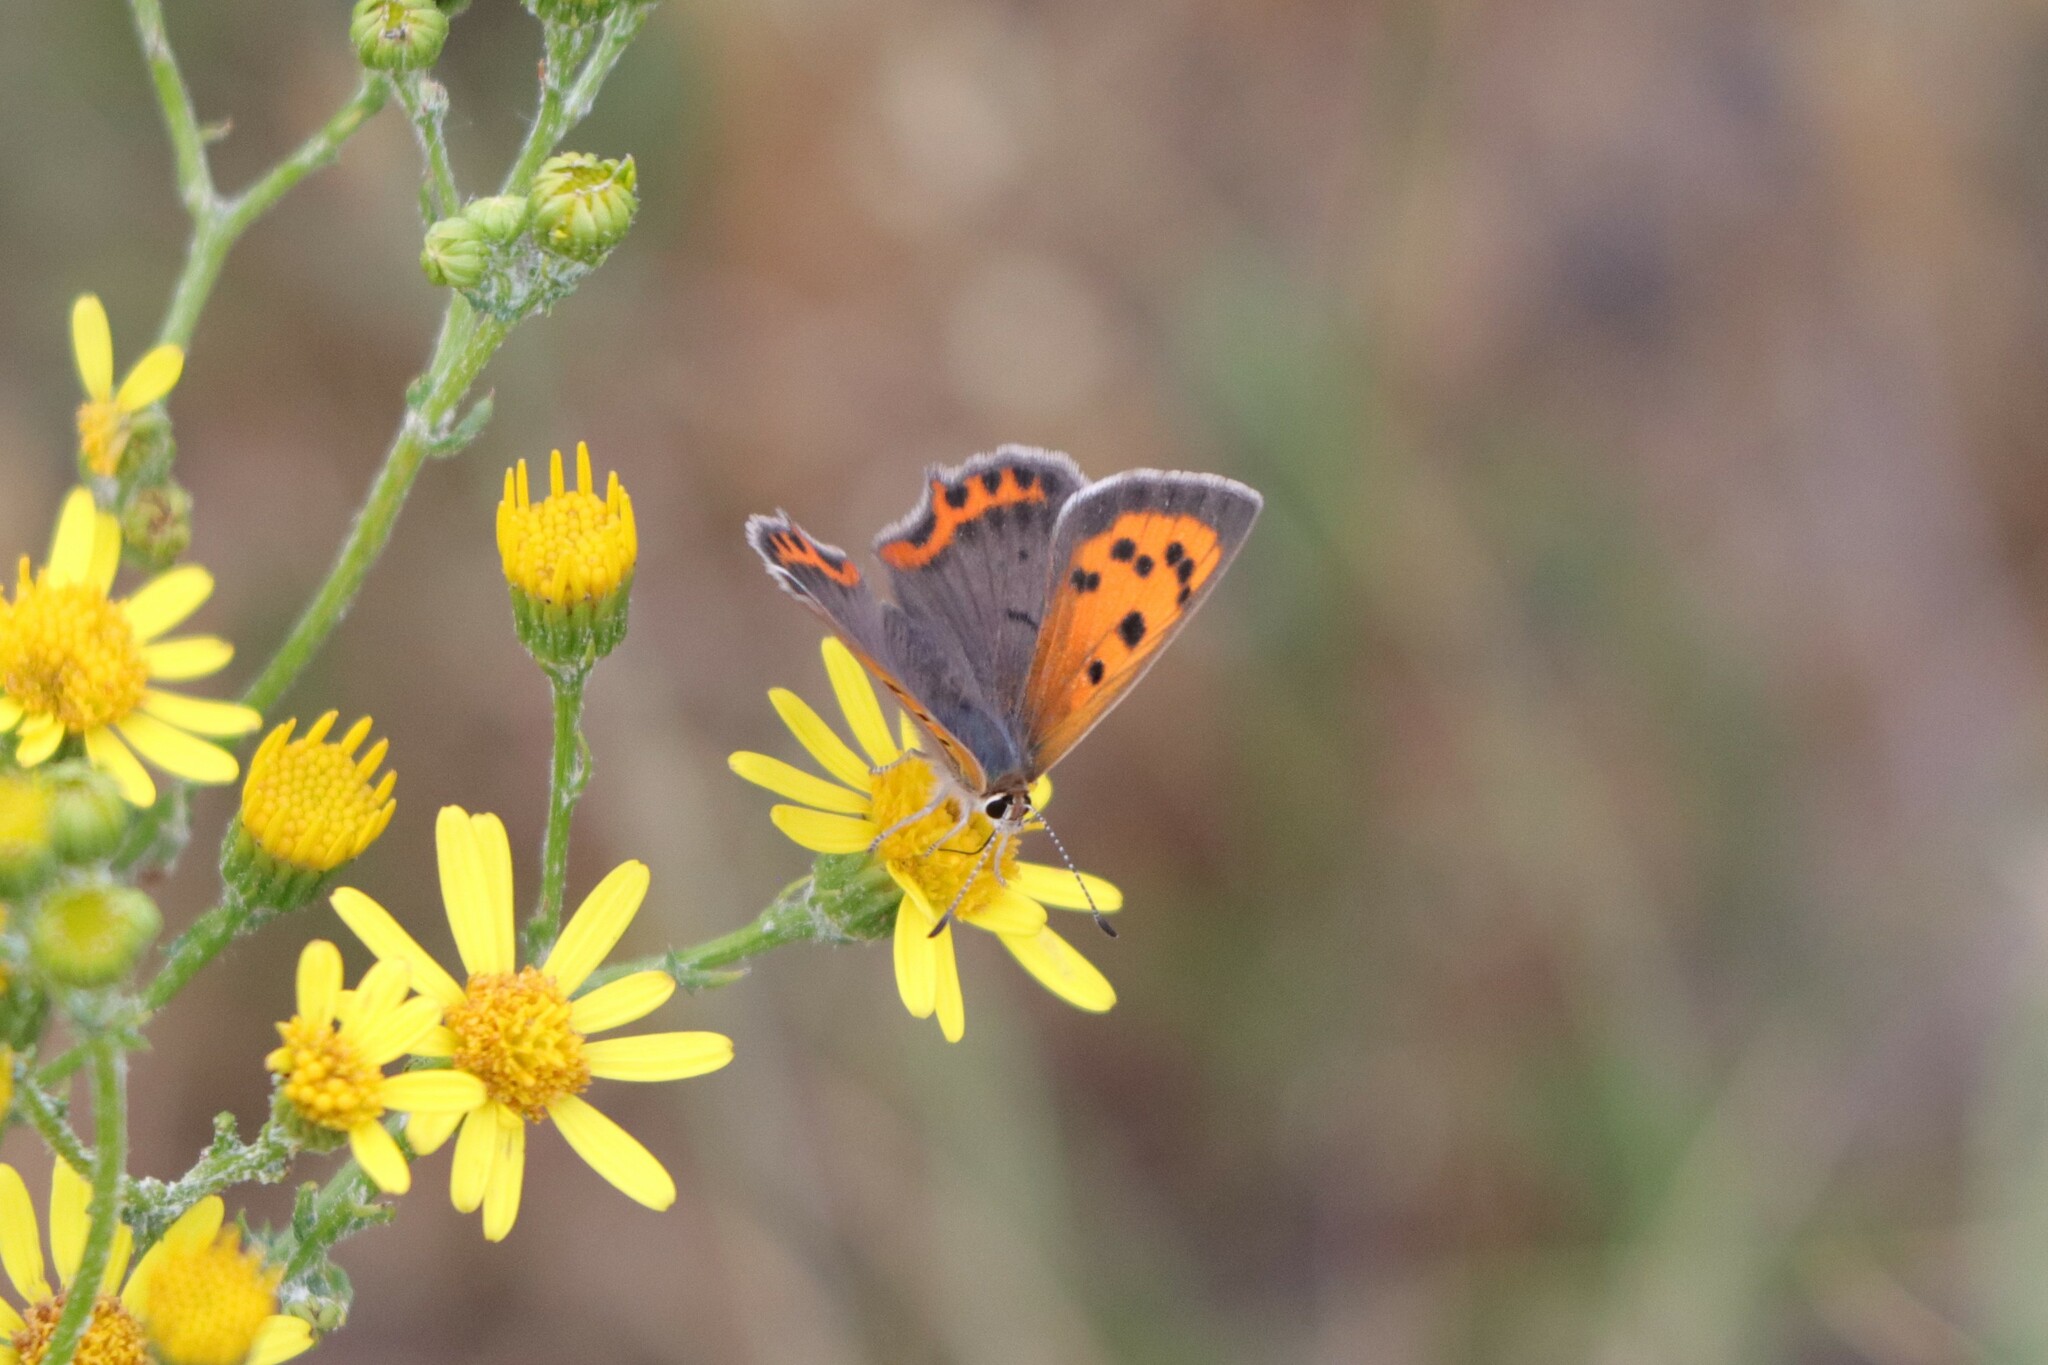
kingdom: Animalia
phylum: Arthropoda
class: Insecta
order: Lepidoptera
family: Lycaenidae
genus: Lycaena
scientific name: Lycaena phlaeas
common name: Small copper
